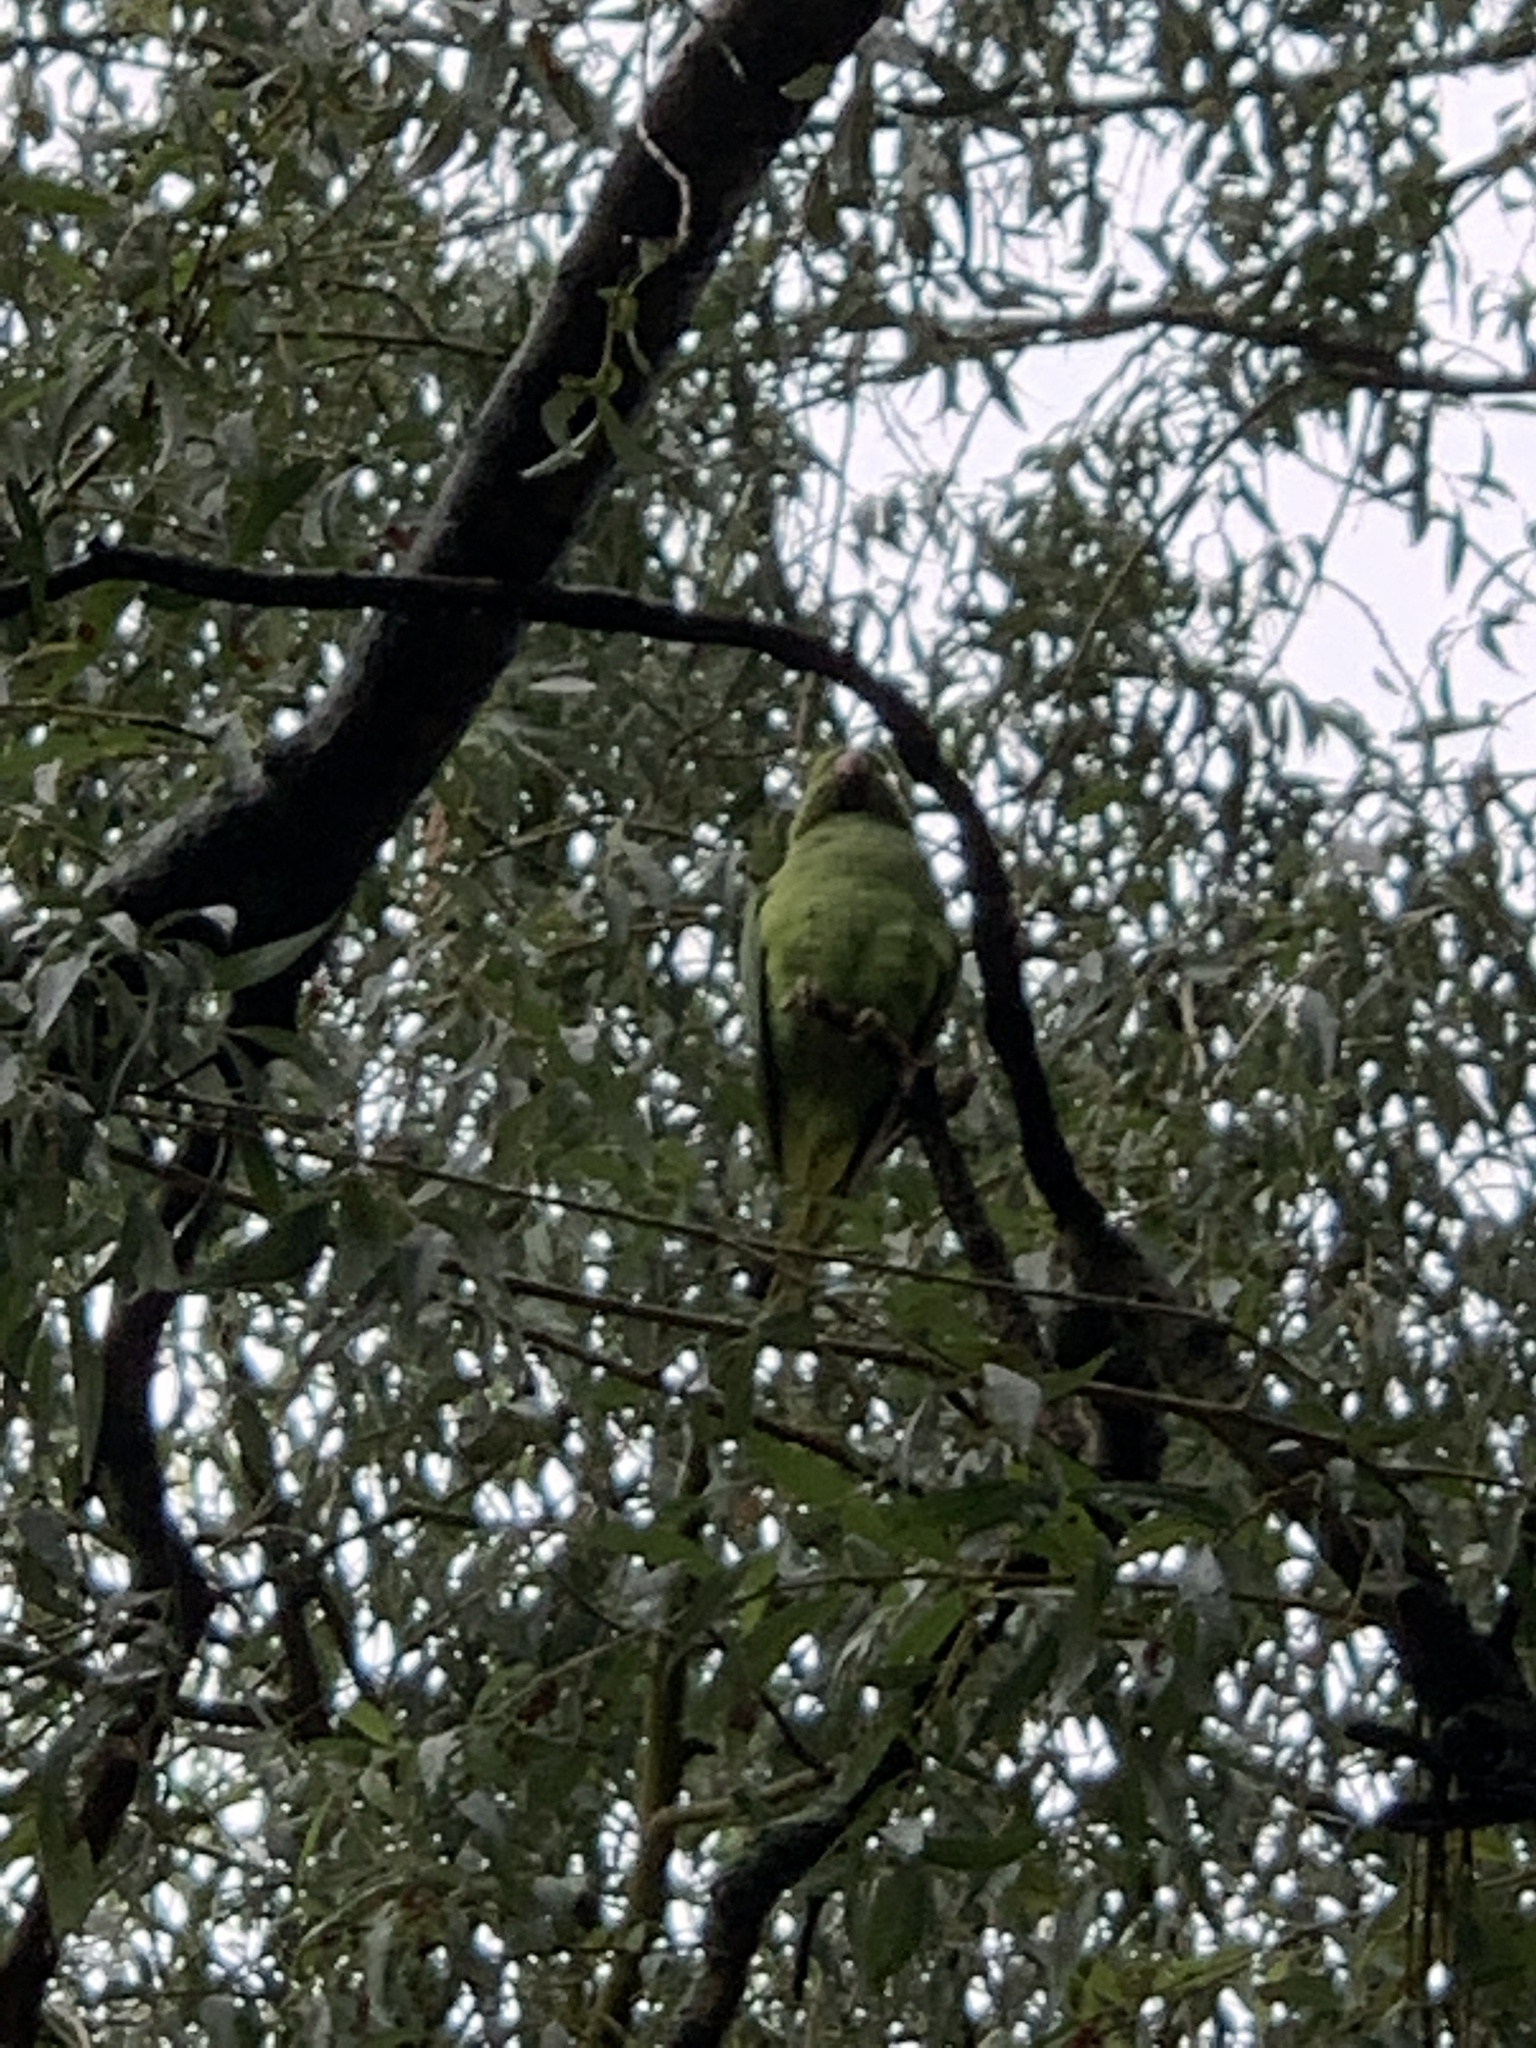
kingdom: Animalia
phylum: Chordata
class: Aves
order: Psittaciformes
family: Psittacidae
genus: Psittacula
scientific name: Psittacula krameri
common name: Rose-ringed parakeet
